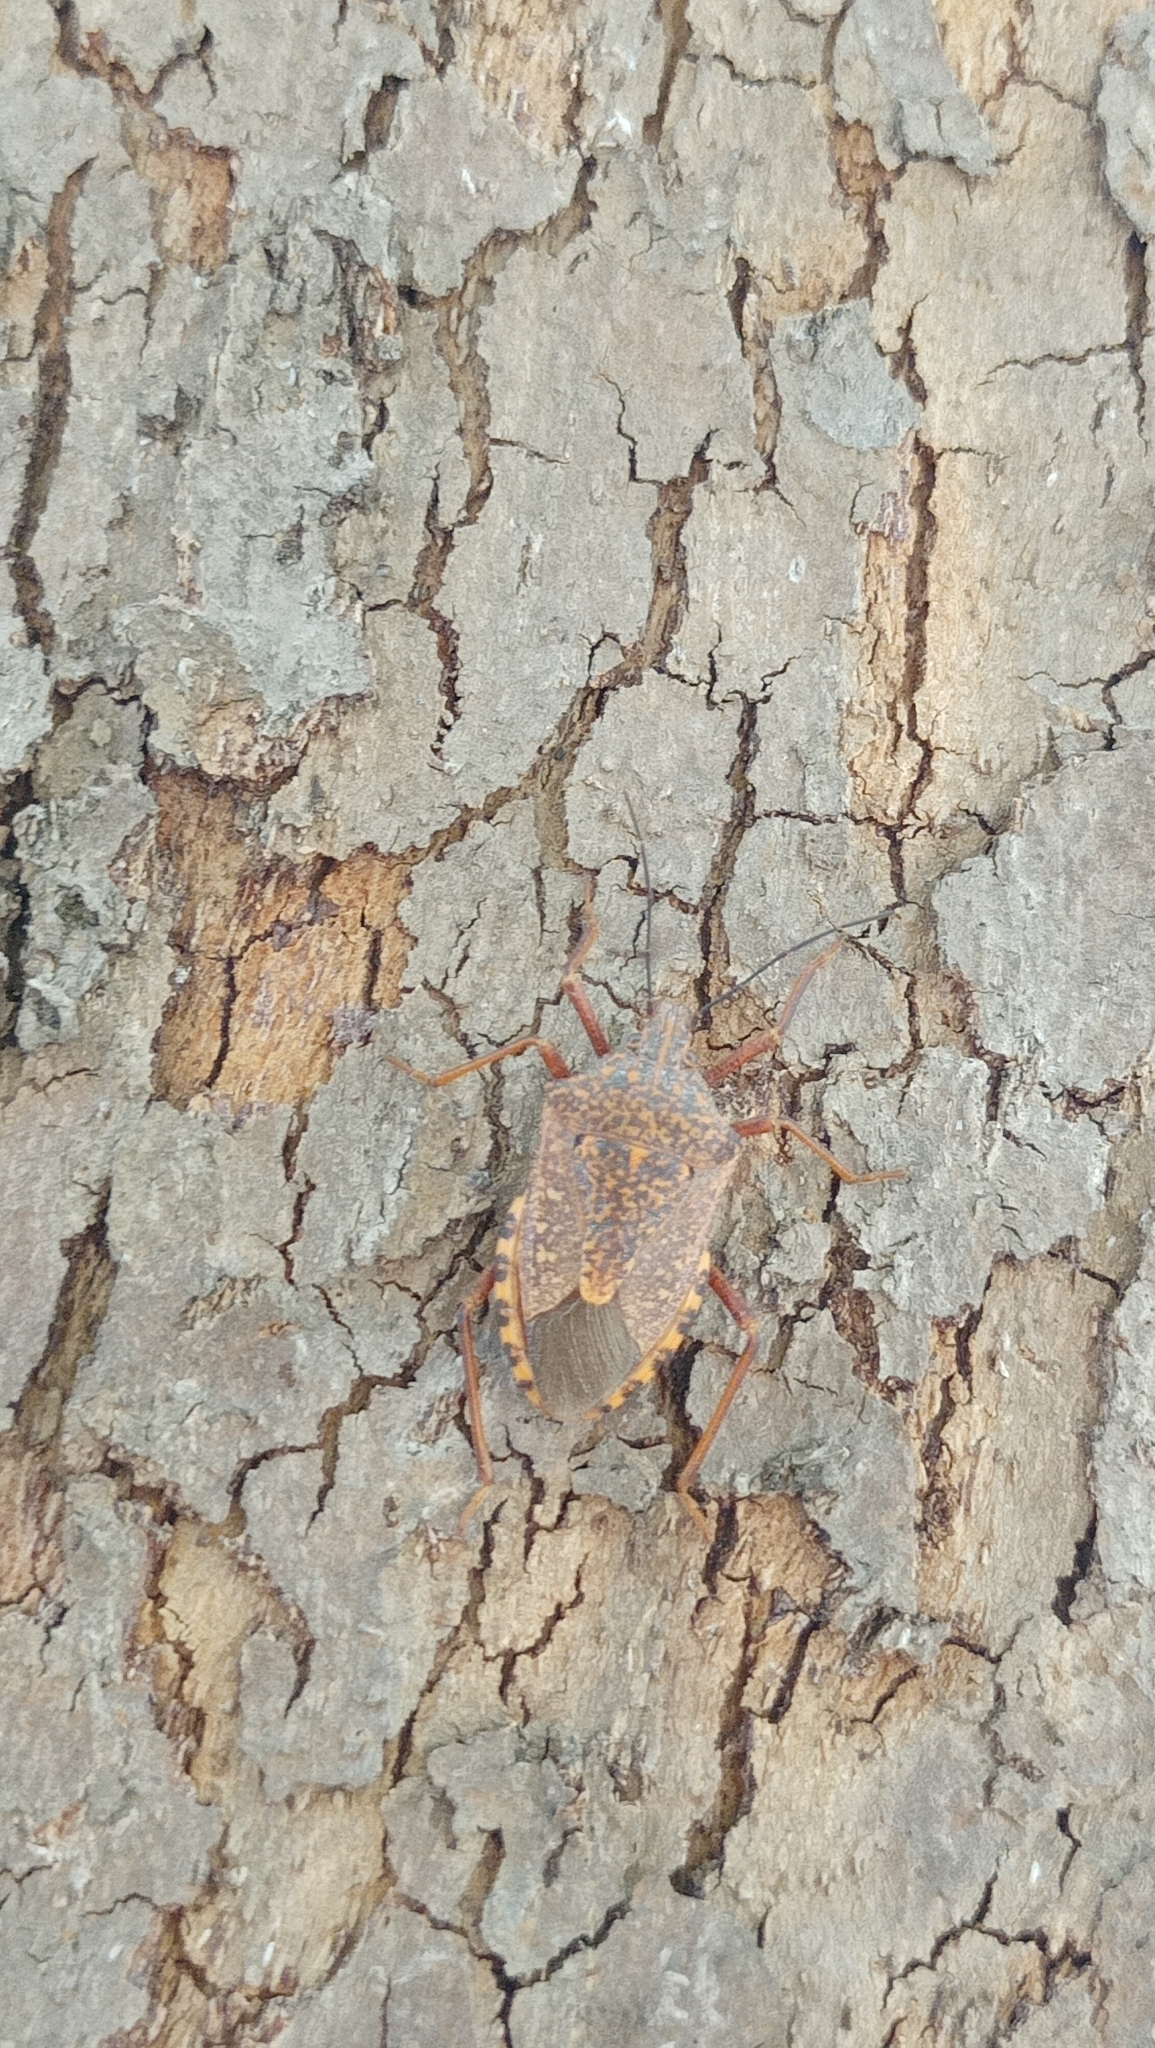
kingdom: Animalia
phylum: Arthropoda
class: Insecta
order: Hemiptera
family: Pentatomidae
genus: Apodiphus
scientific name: Apodiphus
